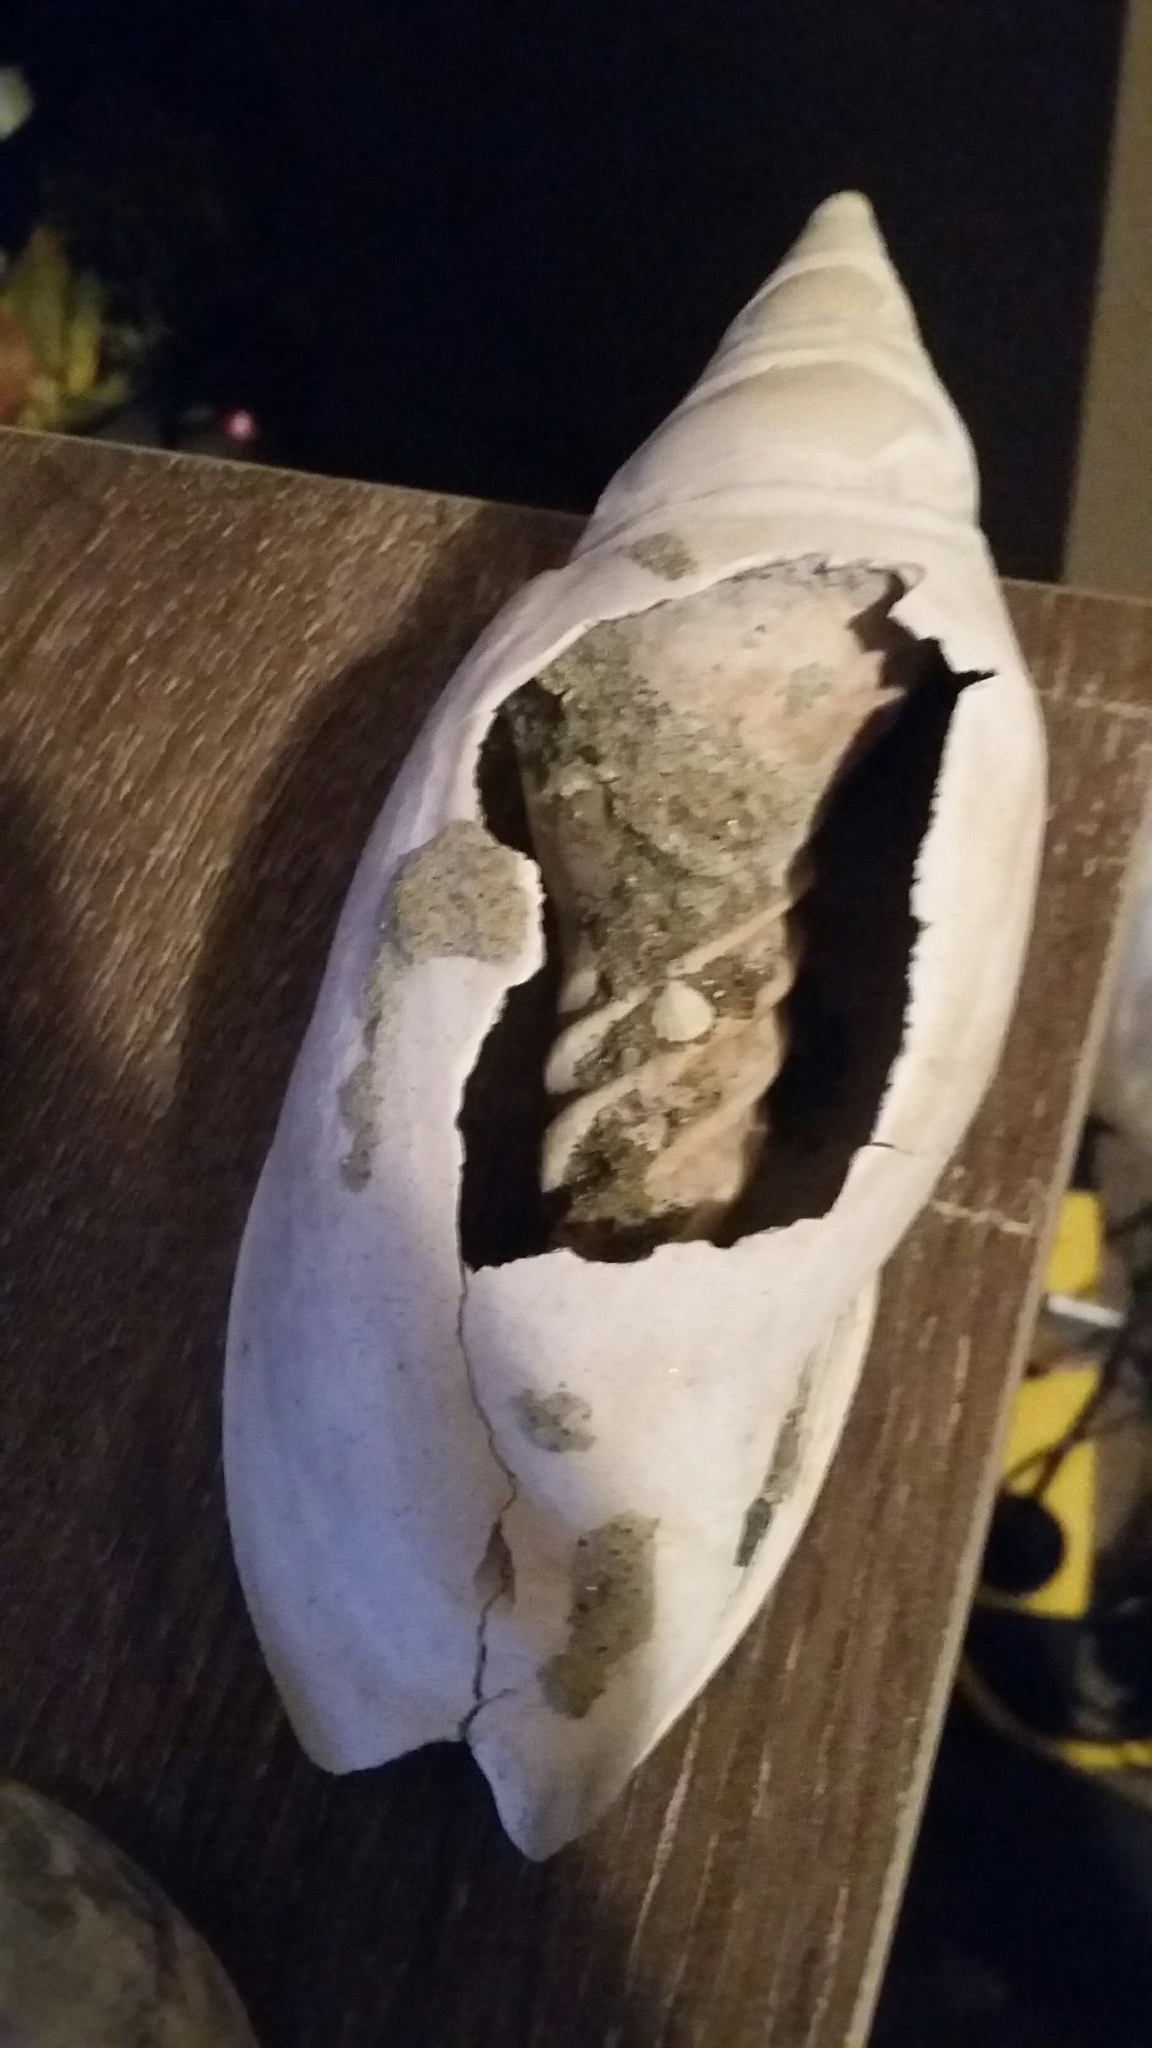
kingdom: Animalia
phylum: Mollusca
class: Gastropoda
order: Neogastropoda
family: Volutidae
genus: Alcithoe
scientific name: Alcithoe arabica
